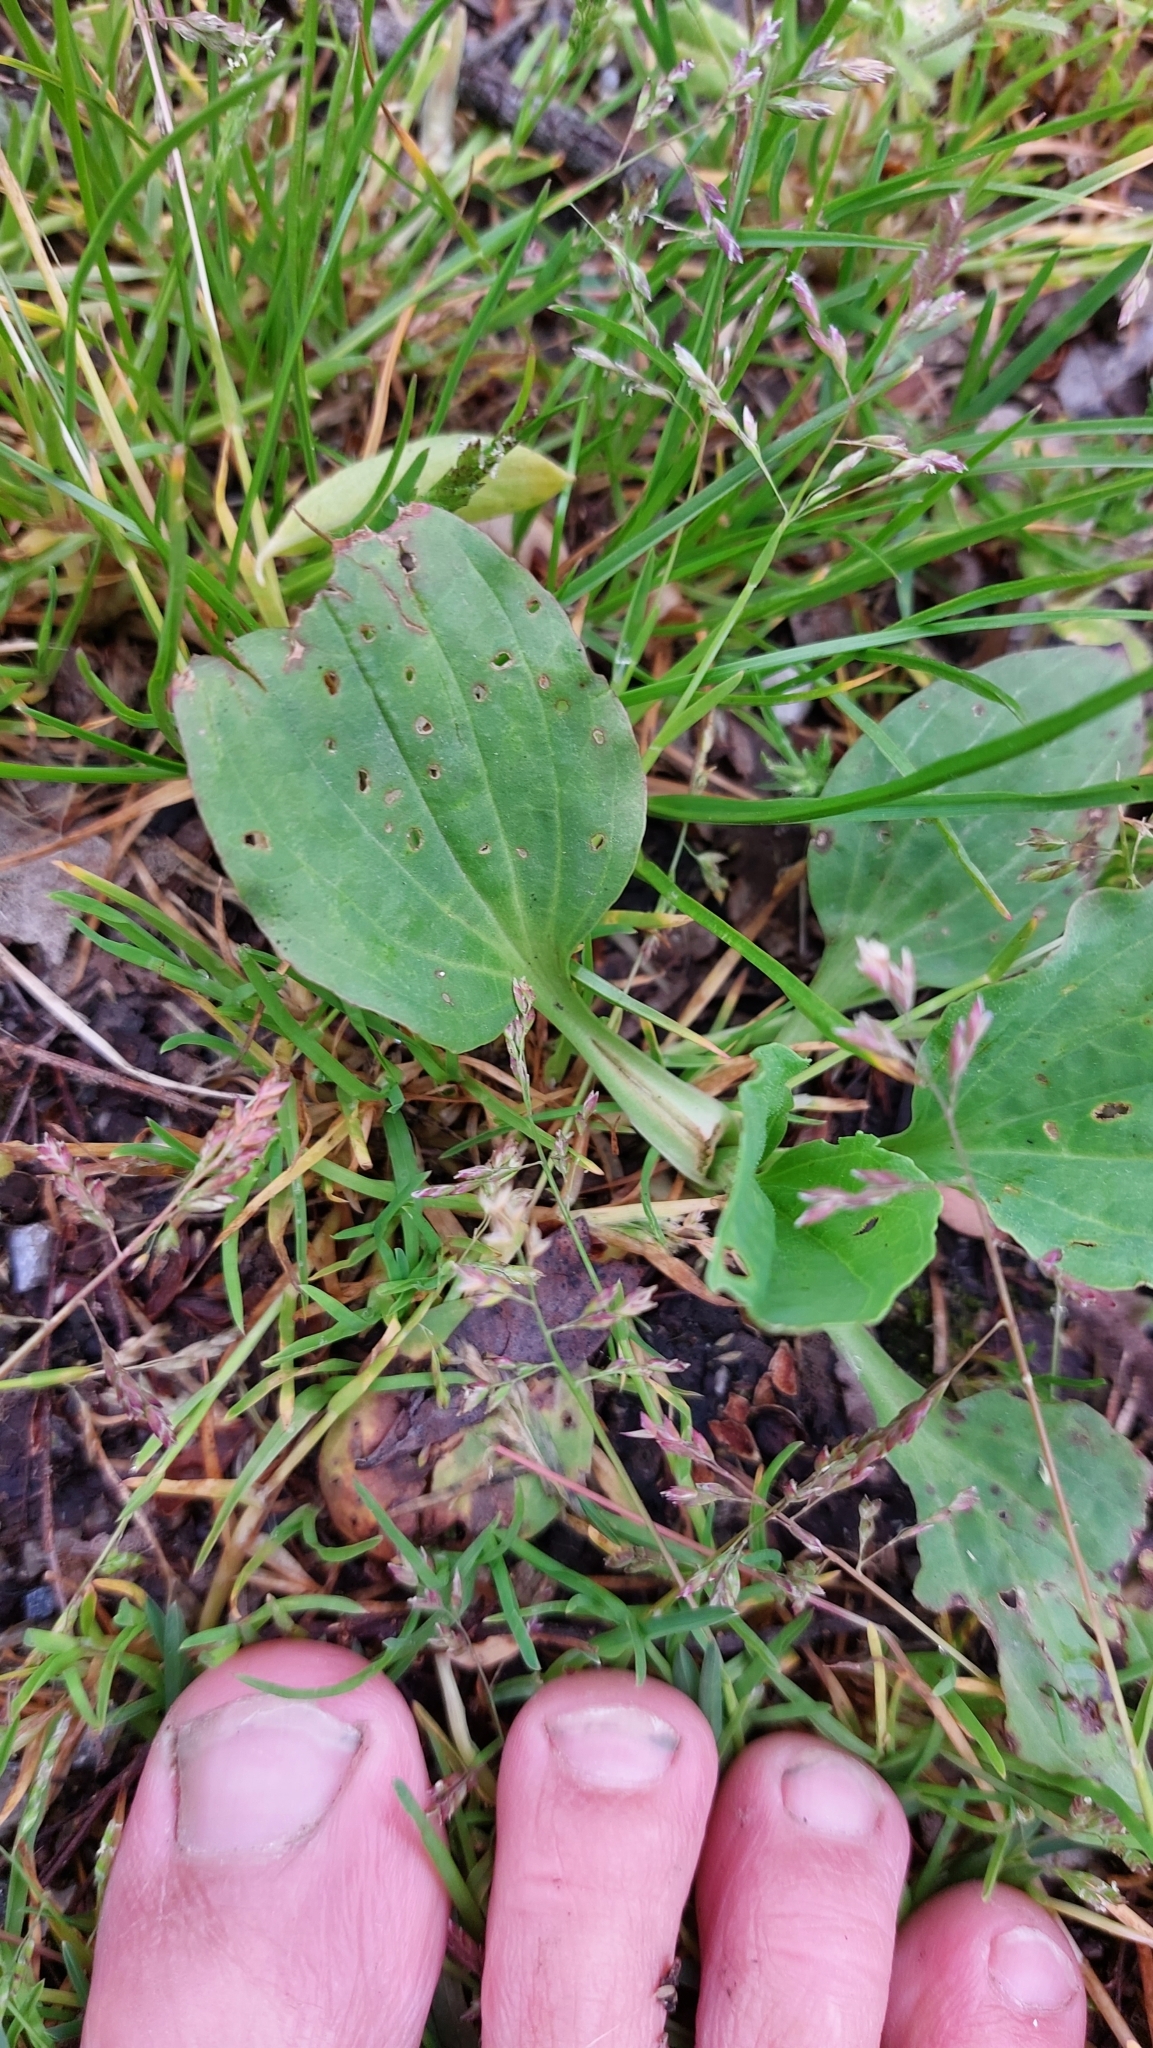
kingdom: Plantae
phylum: Tracheophyta
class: Magnoliopsida
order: Lamiales
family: Plantaginaceae
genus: Plantago
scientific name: Plantago major
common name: Common plantain
